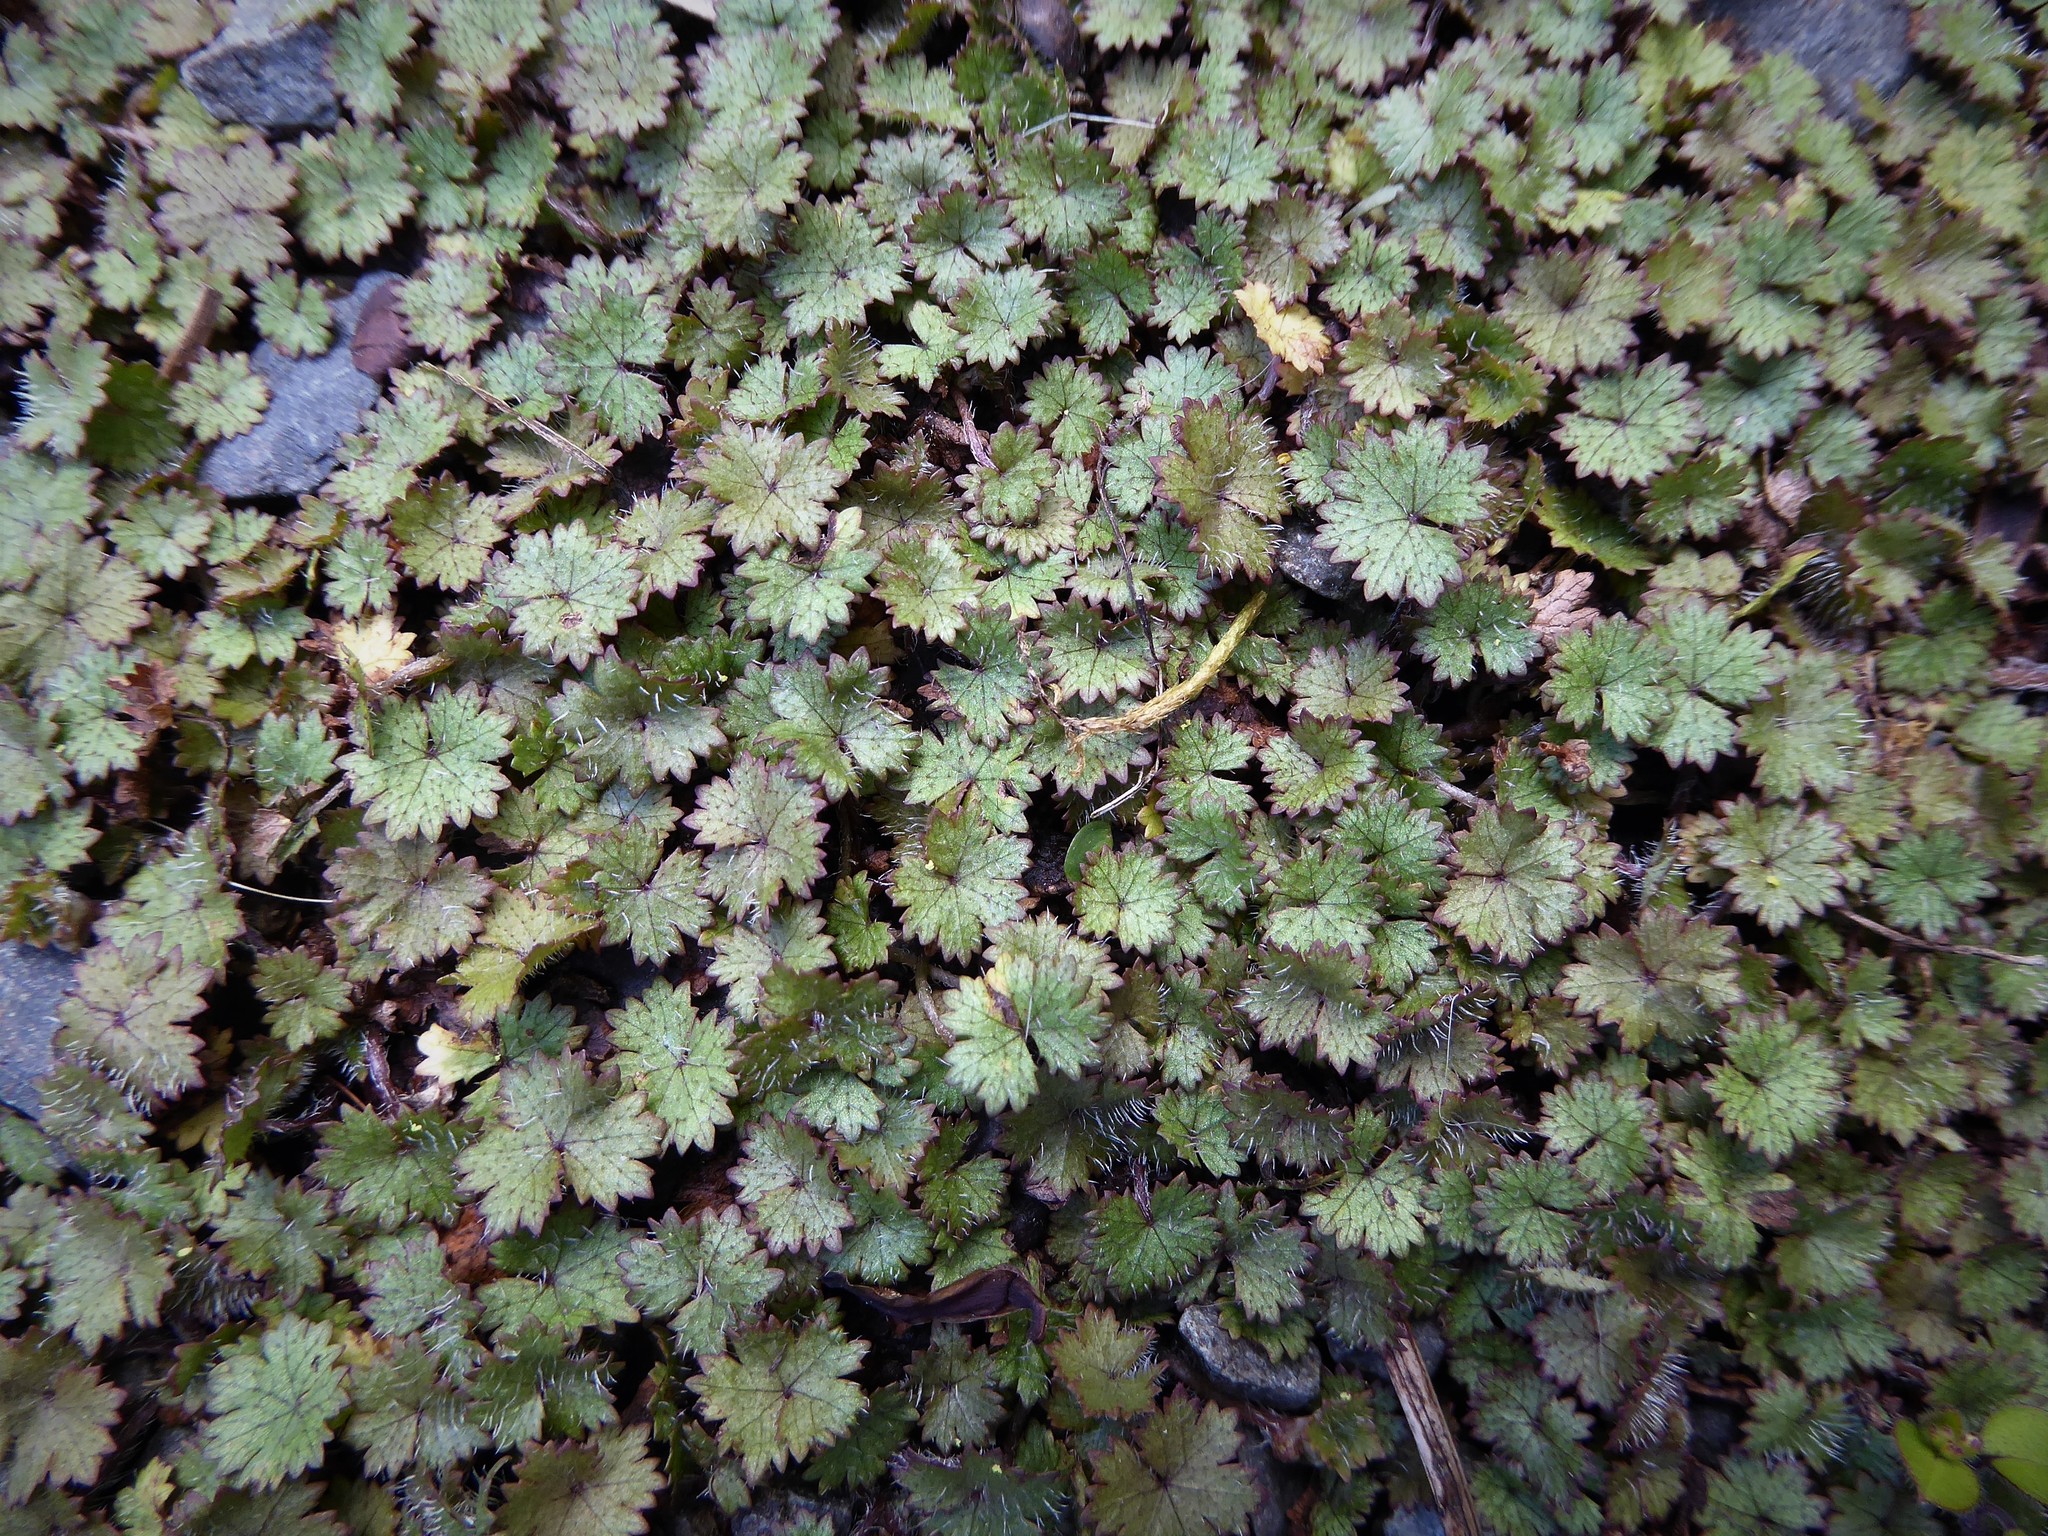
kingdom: Plantae
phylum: Tracheophyta
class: Magnoliopsida
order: Apiales
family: Araliaceae
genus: Hydrocotyle
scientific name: Hydrocotyle moschata
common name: Hairy pennywort
